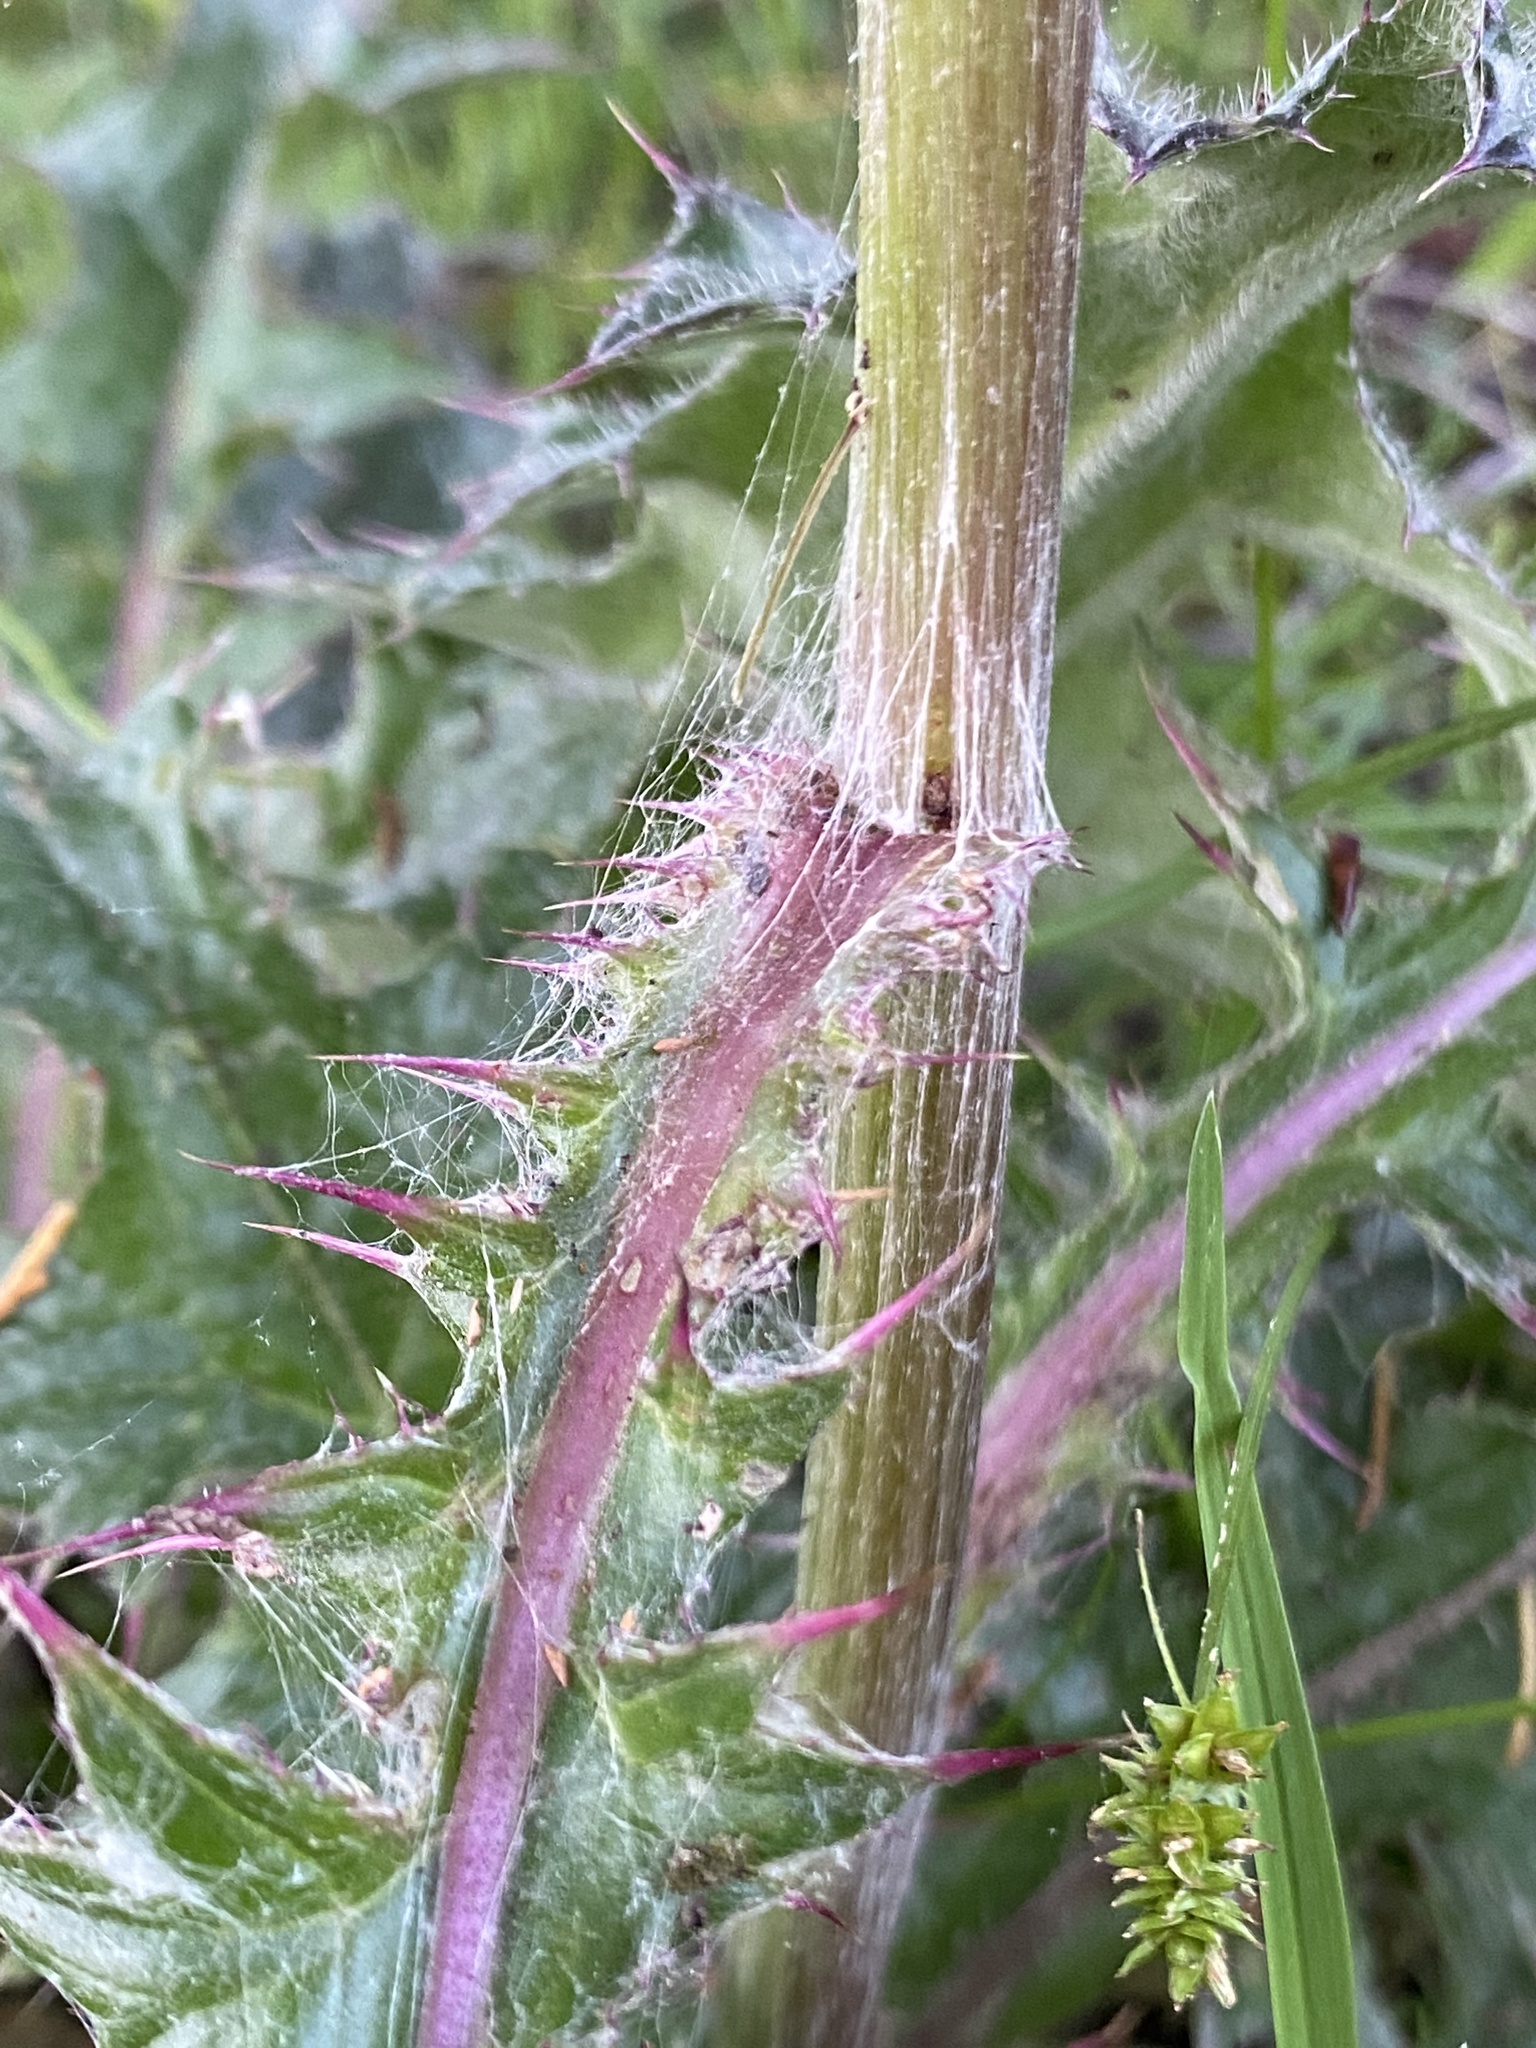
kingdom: Plantae
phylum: Tracheophyta
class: Magnoliopsida
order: Asterales
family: Asteraceae
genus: Cirsium
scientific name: Cirsium horridulum
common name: Bristly thistle
